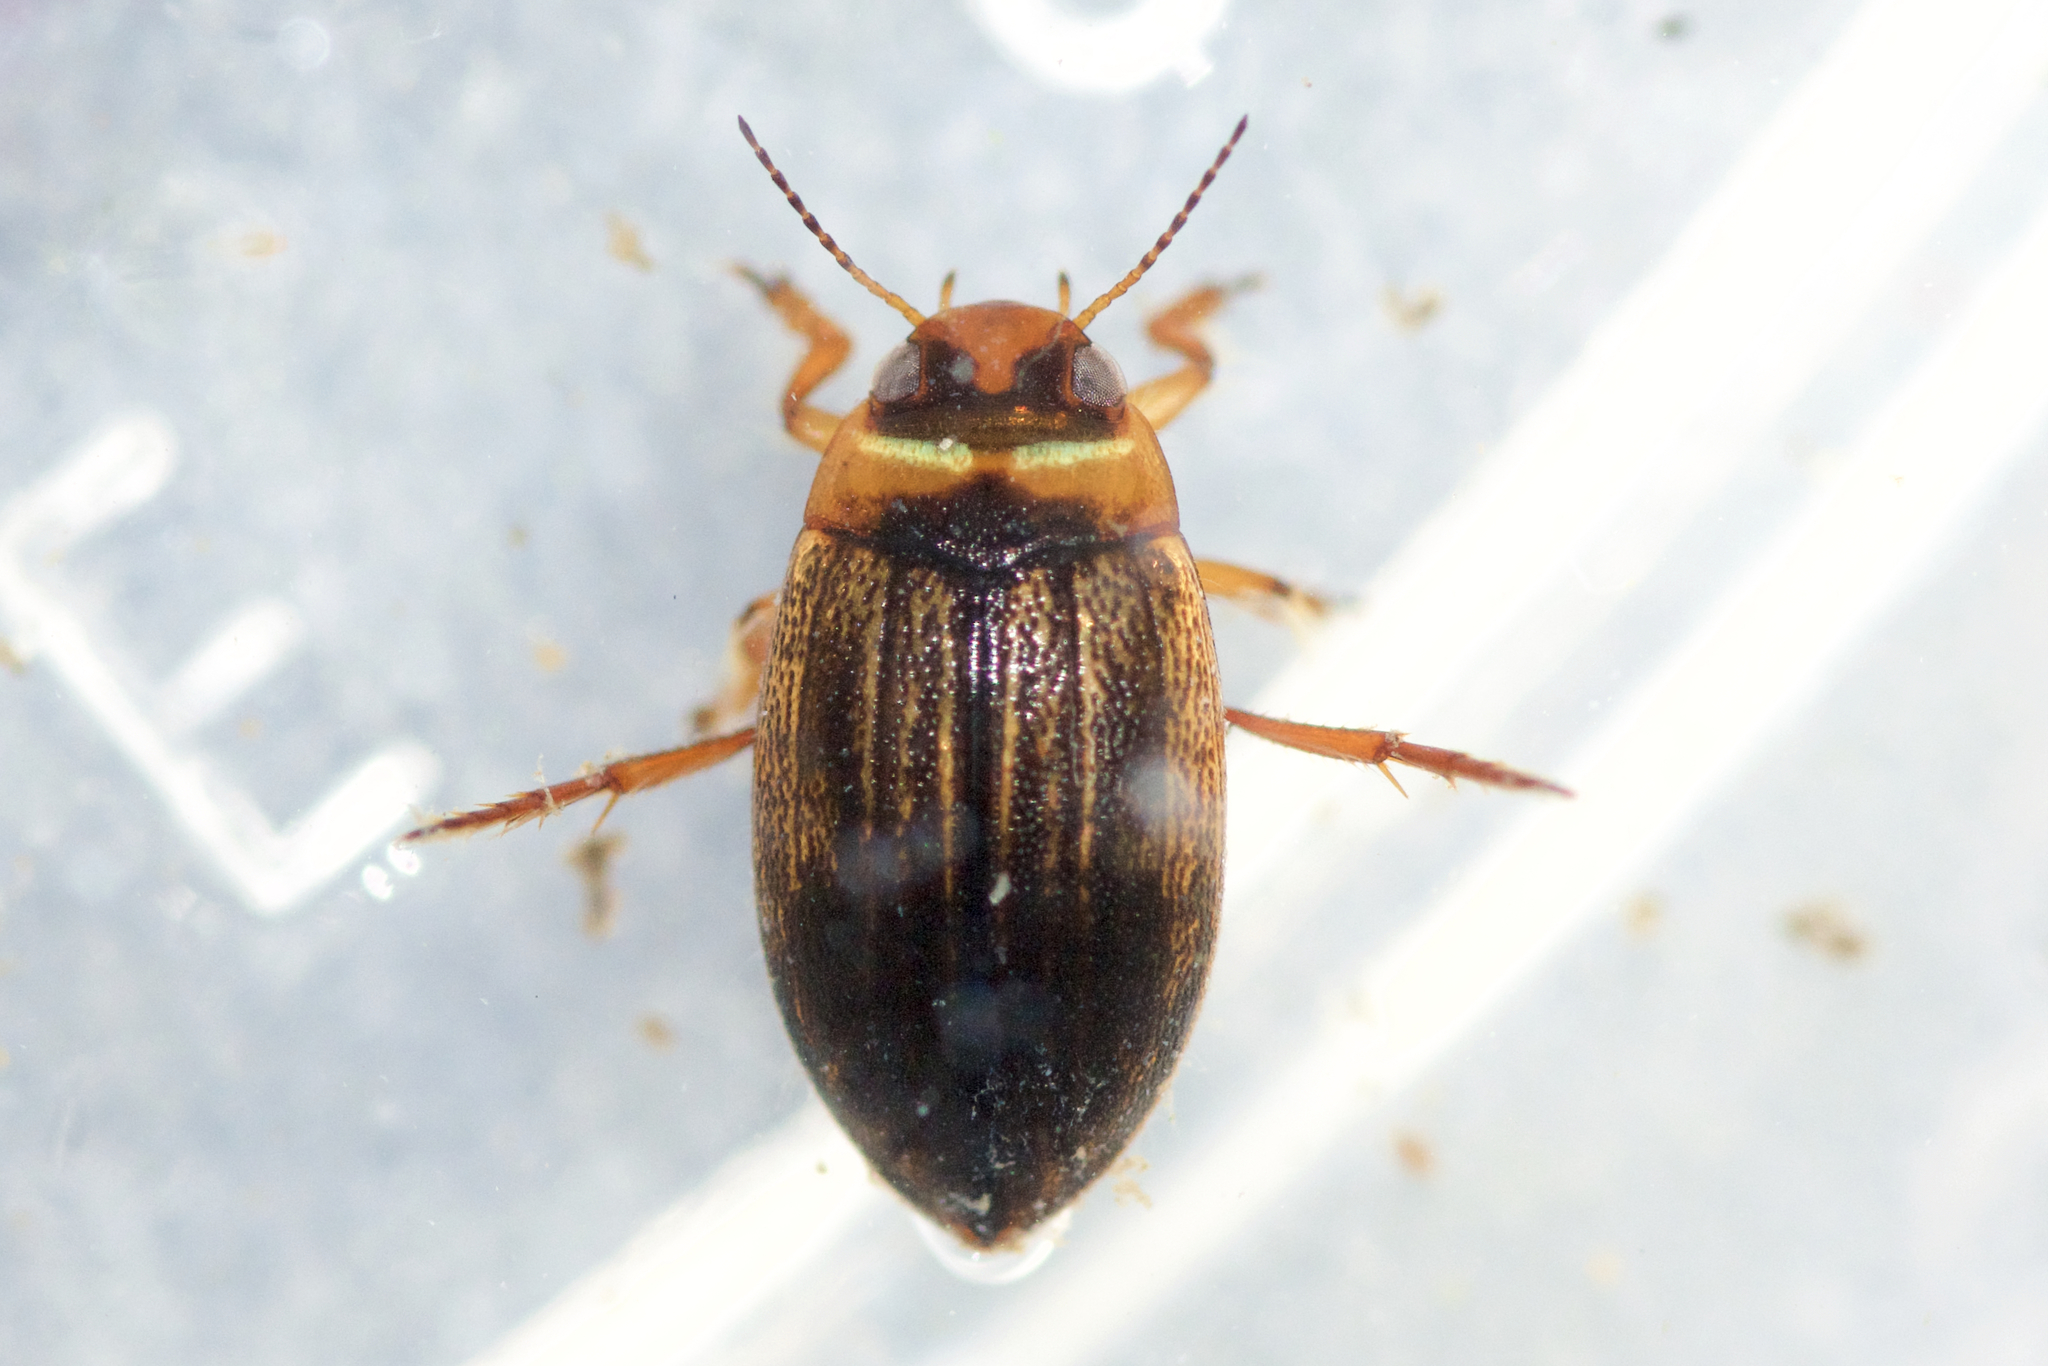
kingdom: Animalia
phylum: Arthropoda
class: Insecta
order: Coleoptera
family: Dytiscidae
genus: Hygrotus
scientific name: Hygrotus impressopunctatus
